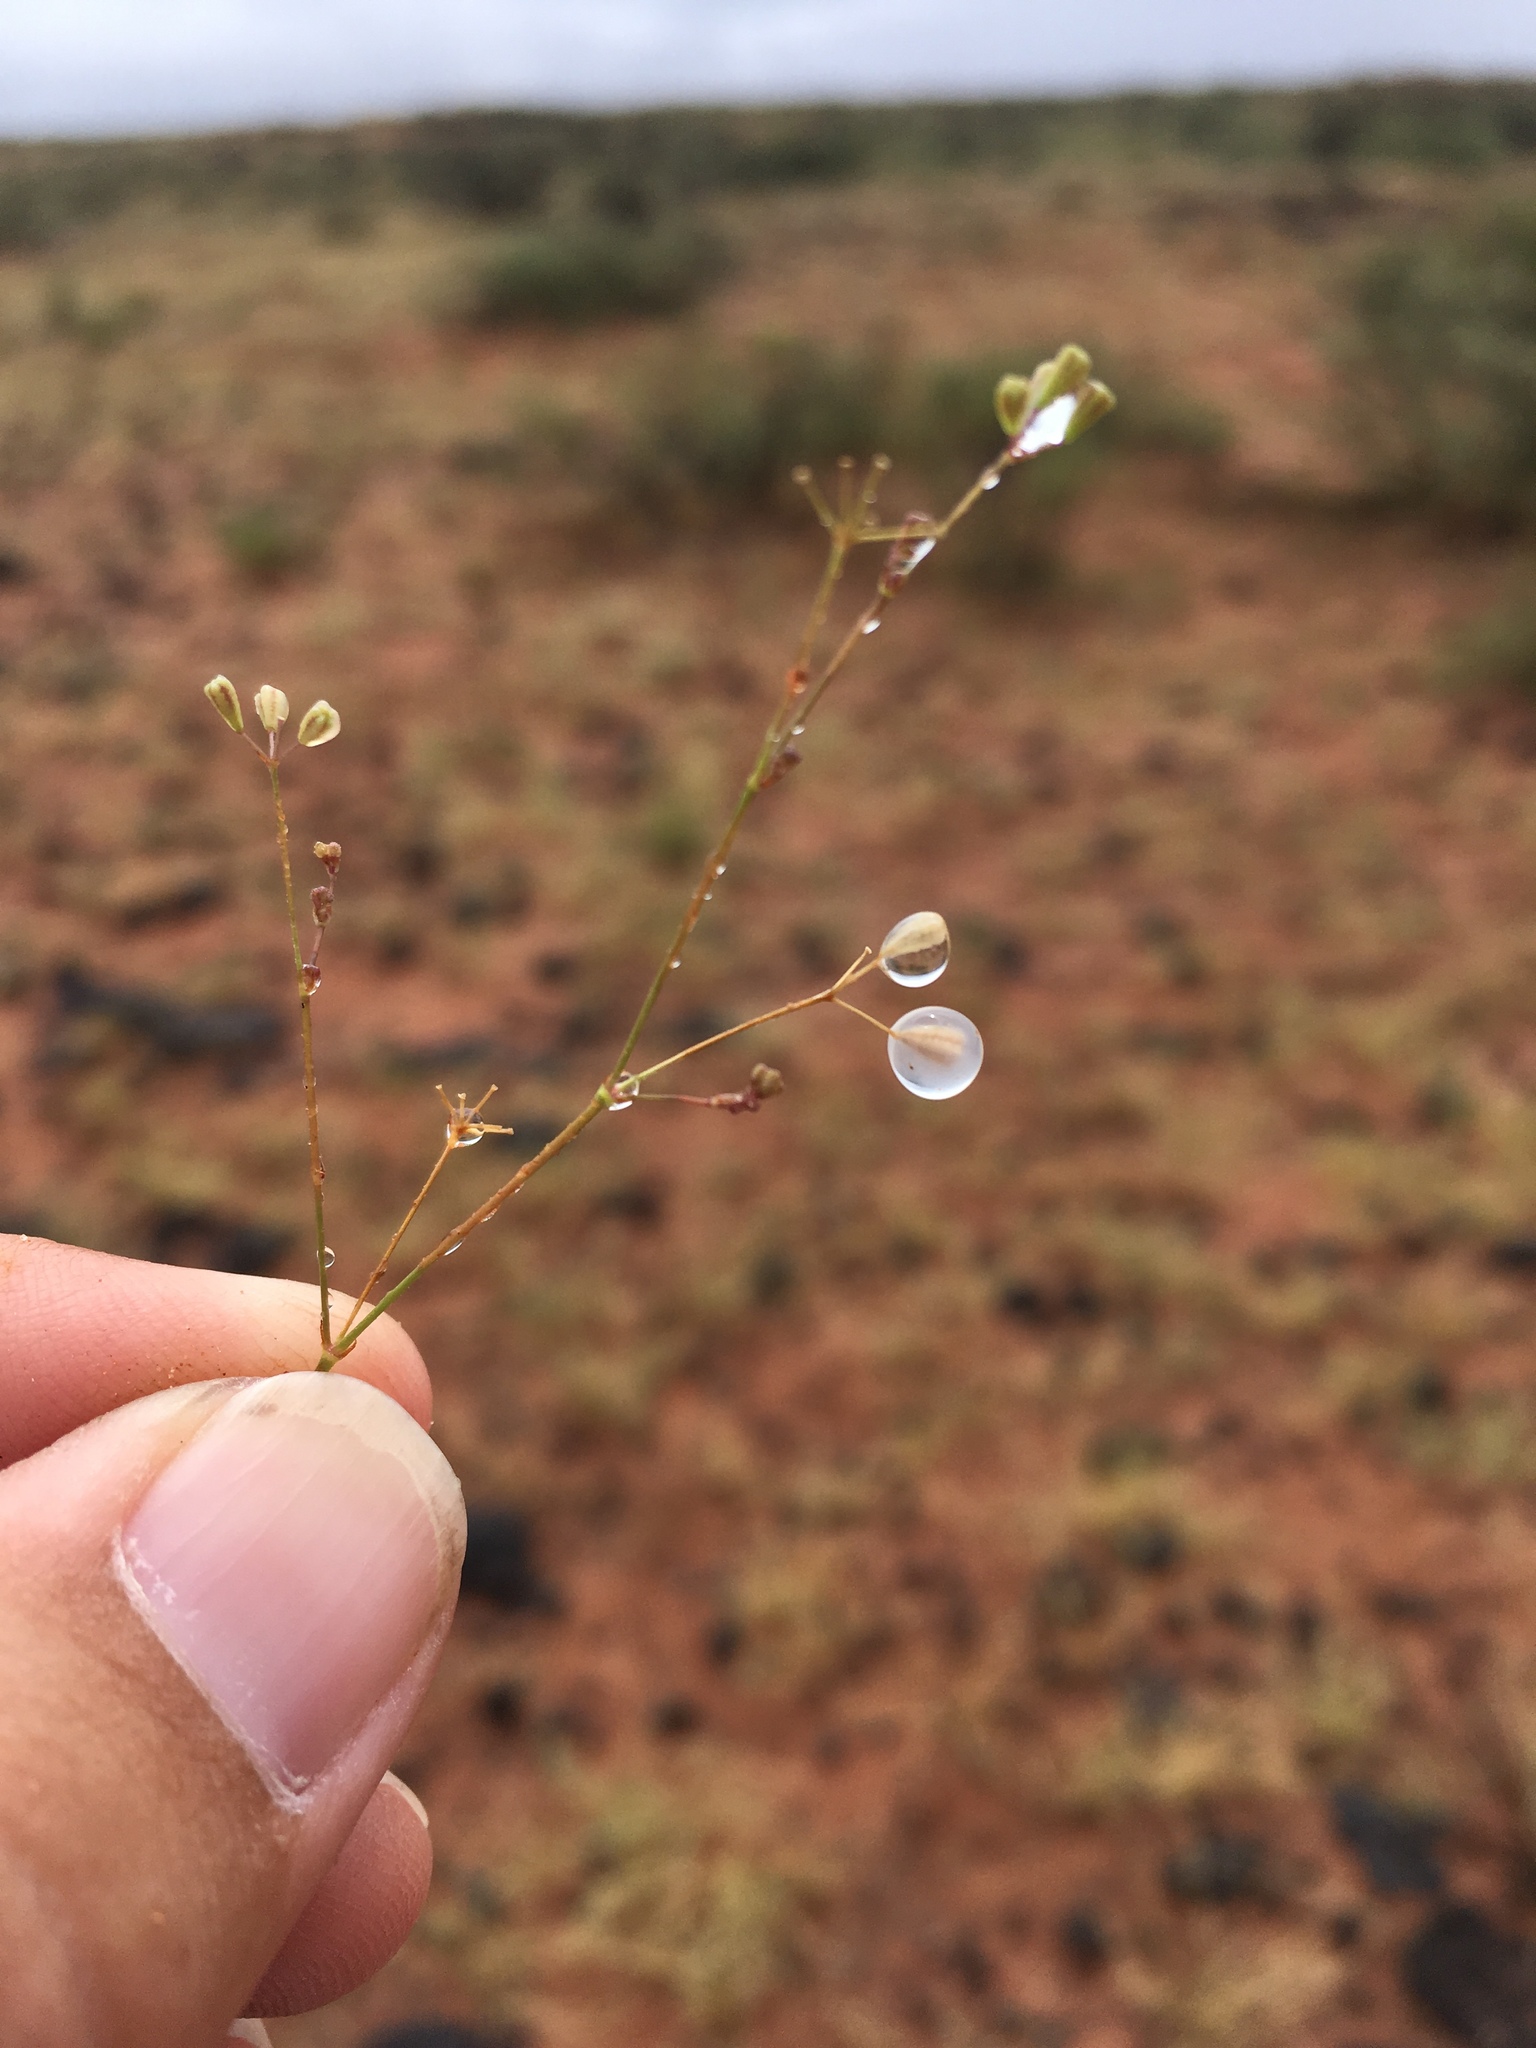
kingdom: Plantae
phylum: Tracheophyta
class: Magnoliopsida
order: Caryophyllales
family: Nyctaginaceae
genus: Boerhavia
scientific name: Boerhavia triquetra
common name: Creeping sticky-stem
